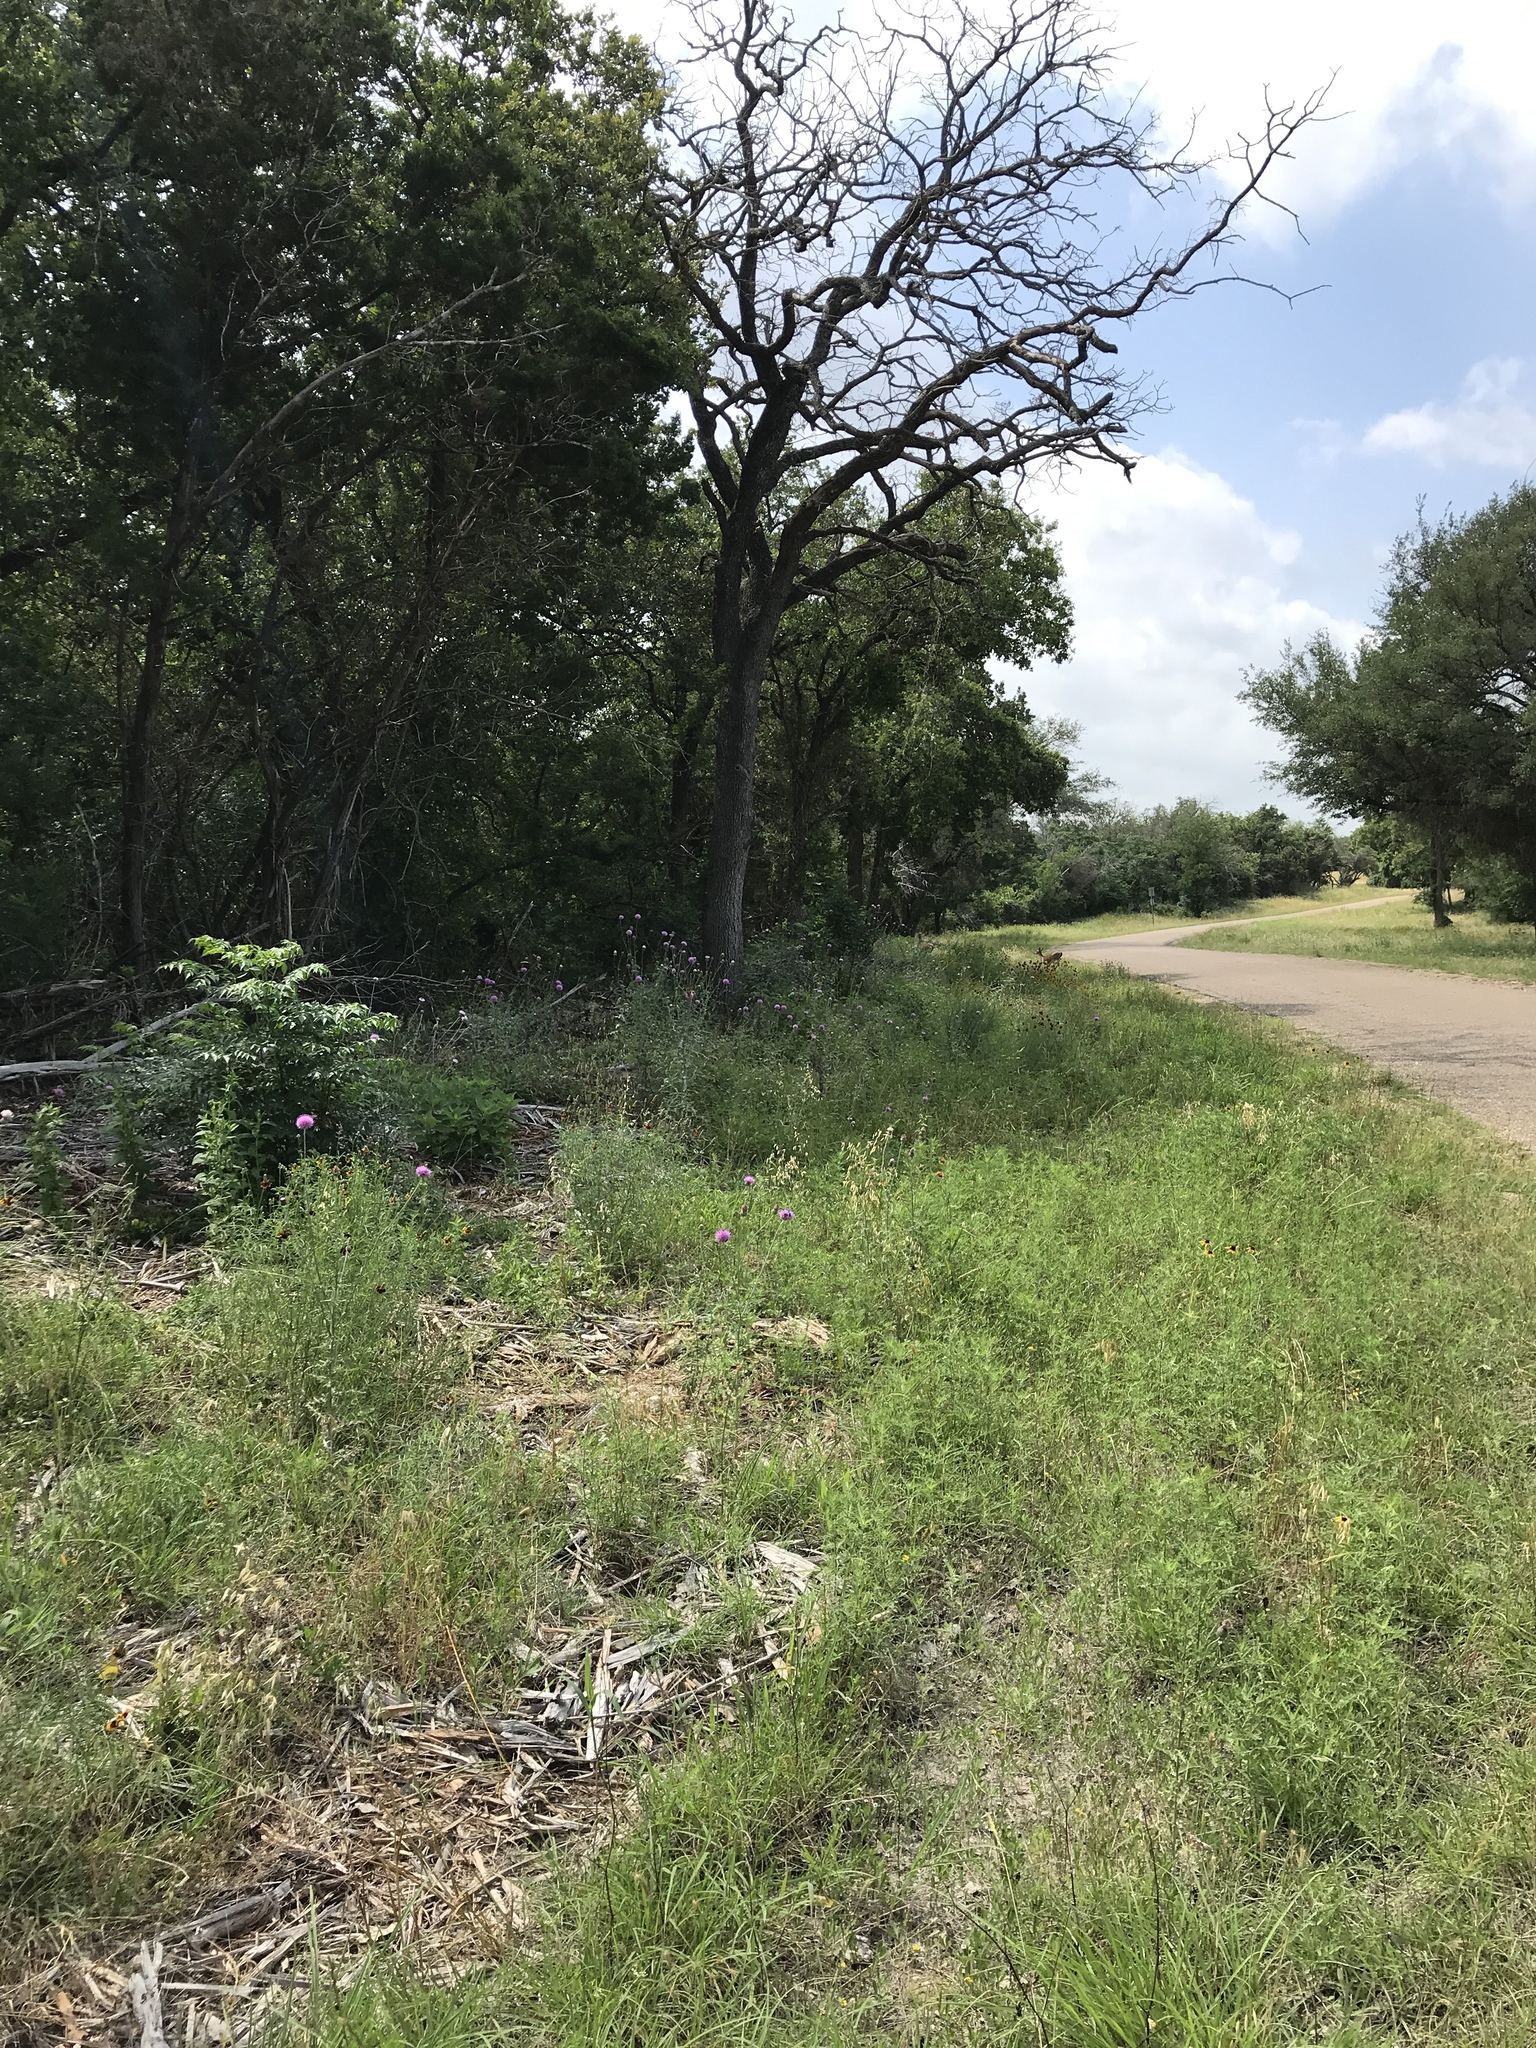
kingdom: Animalia
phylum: Chordata
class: Mammalia
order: Artiodactyla
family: Cervidae
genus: Odocoileus
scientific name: Odocoileus virginianus
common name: White-tailed deer
